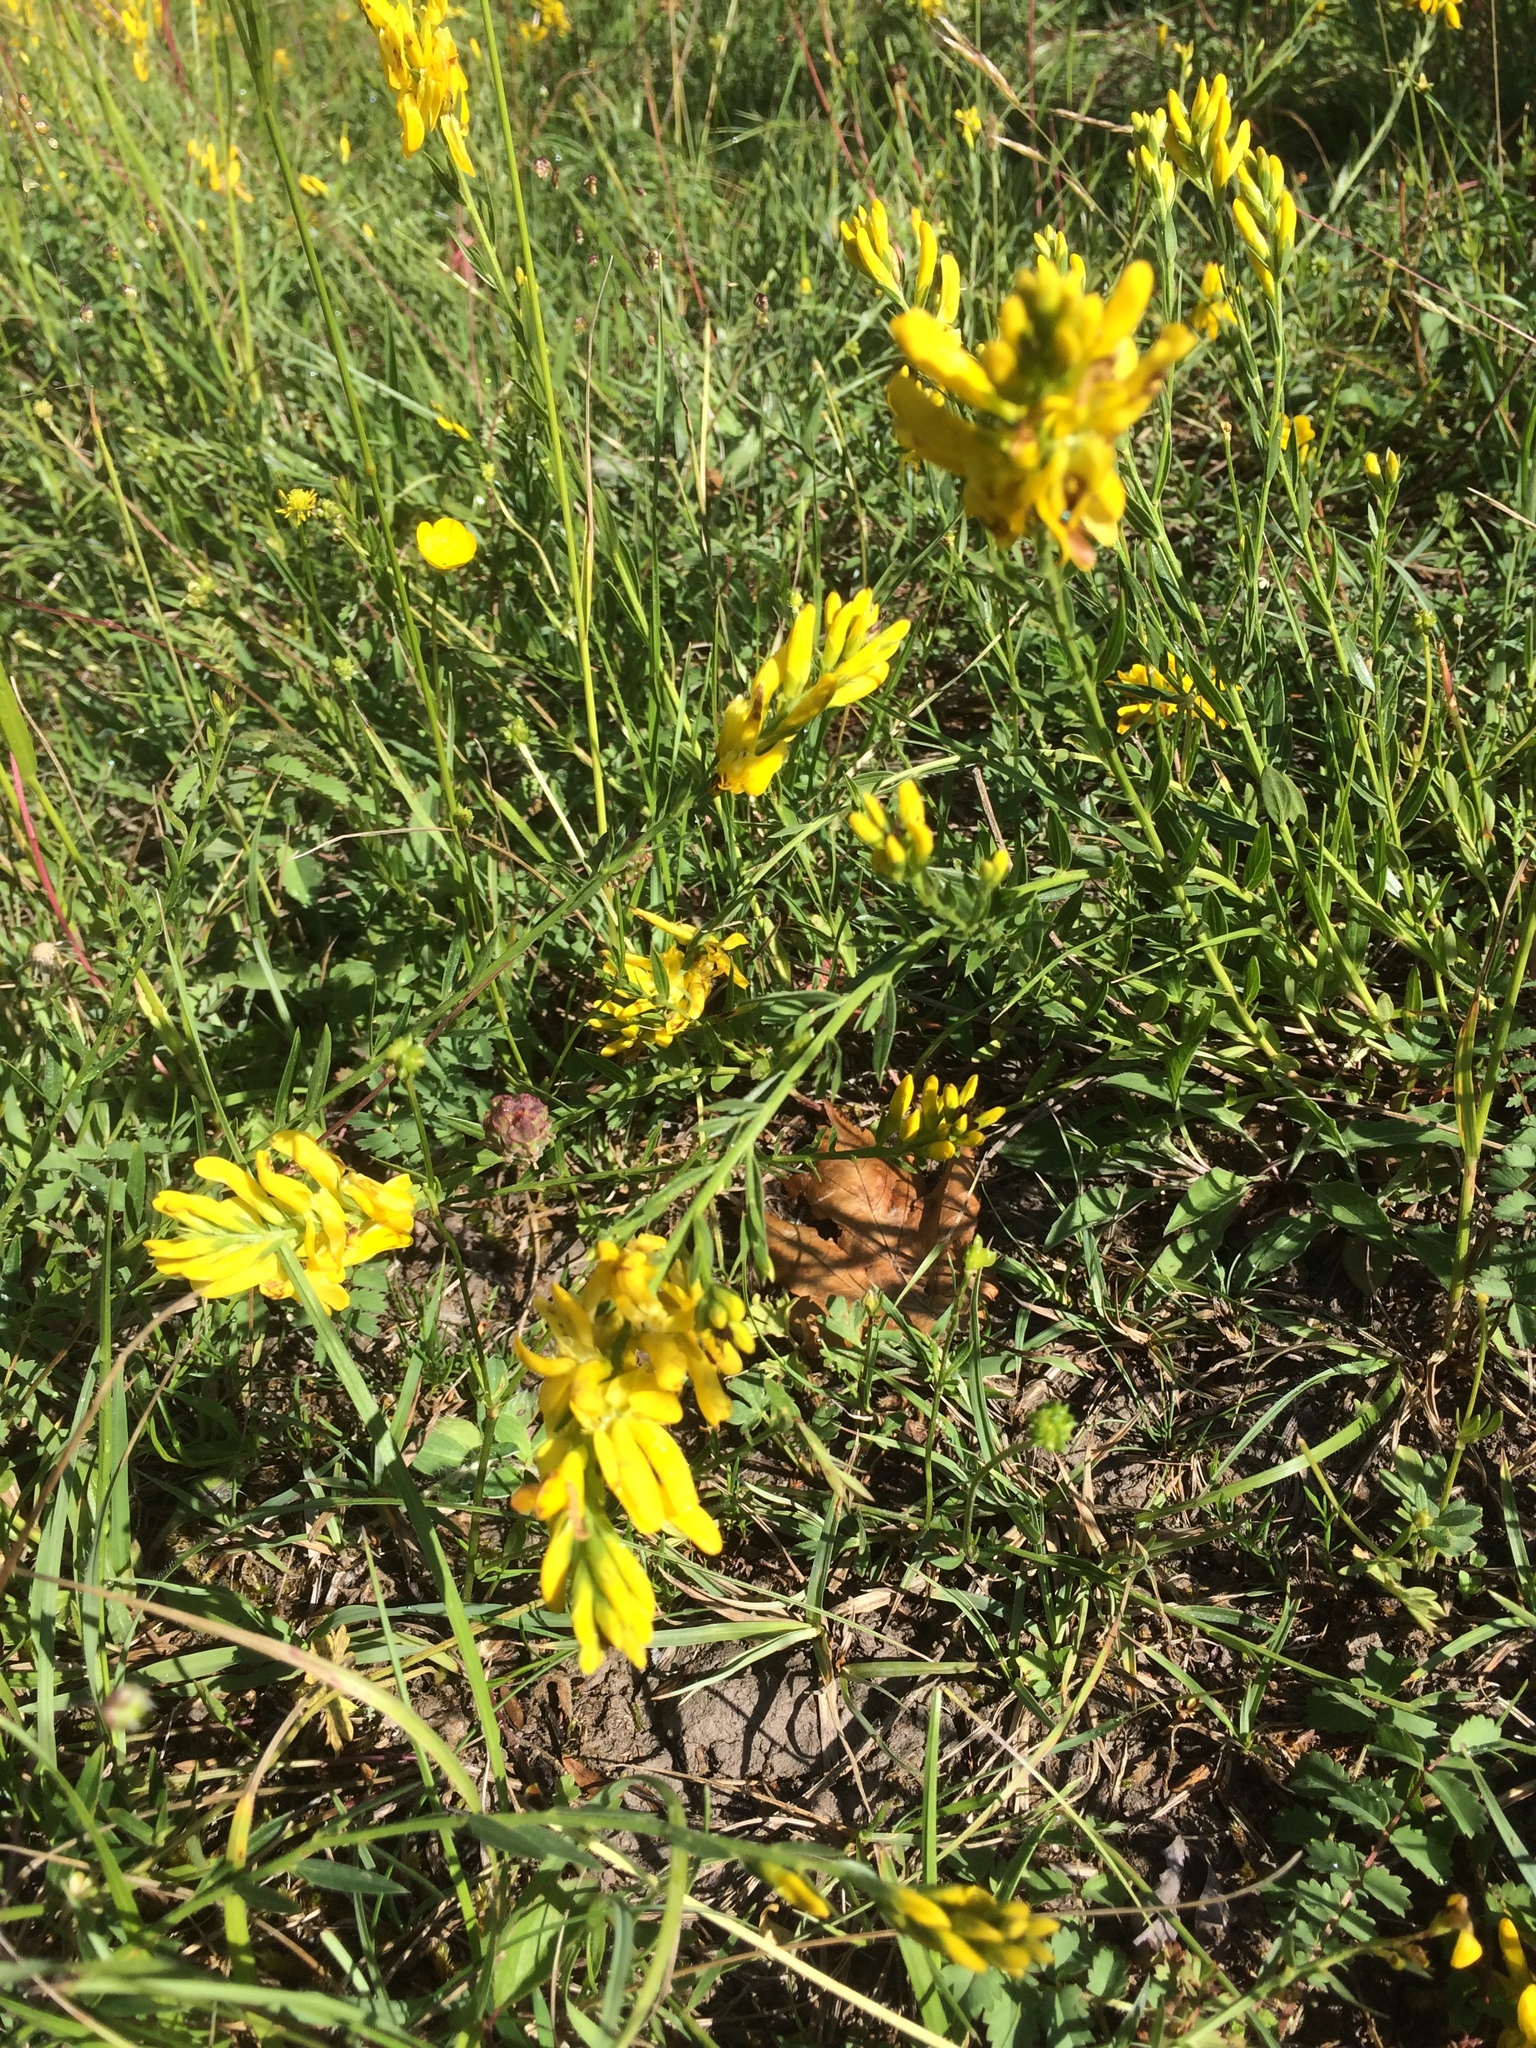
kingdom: Plantae
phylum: Tracheophyta
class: Magnoliopsida
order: Fabales
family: Fabaceae
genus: Genista
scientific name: Genista tinctoria
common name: Dyer's greenweed
